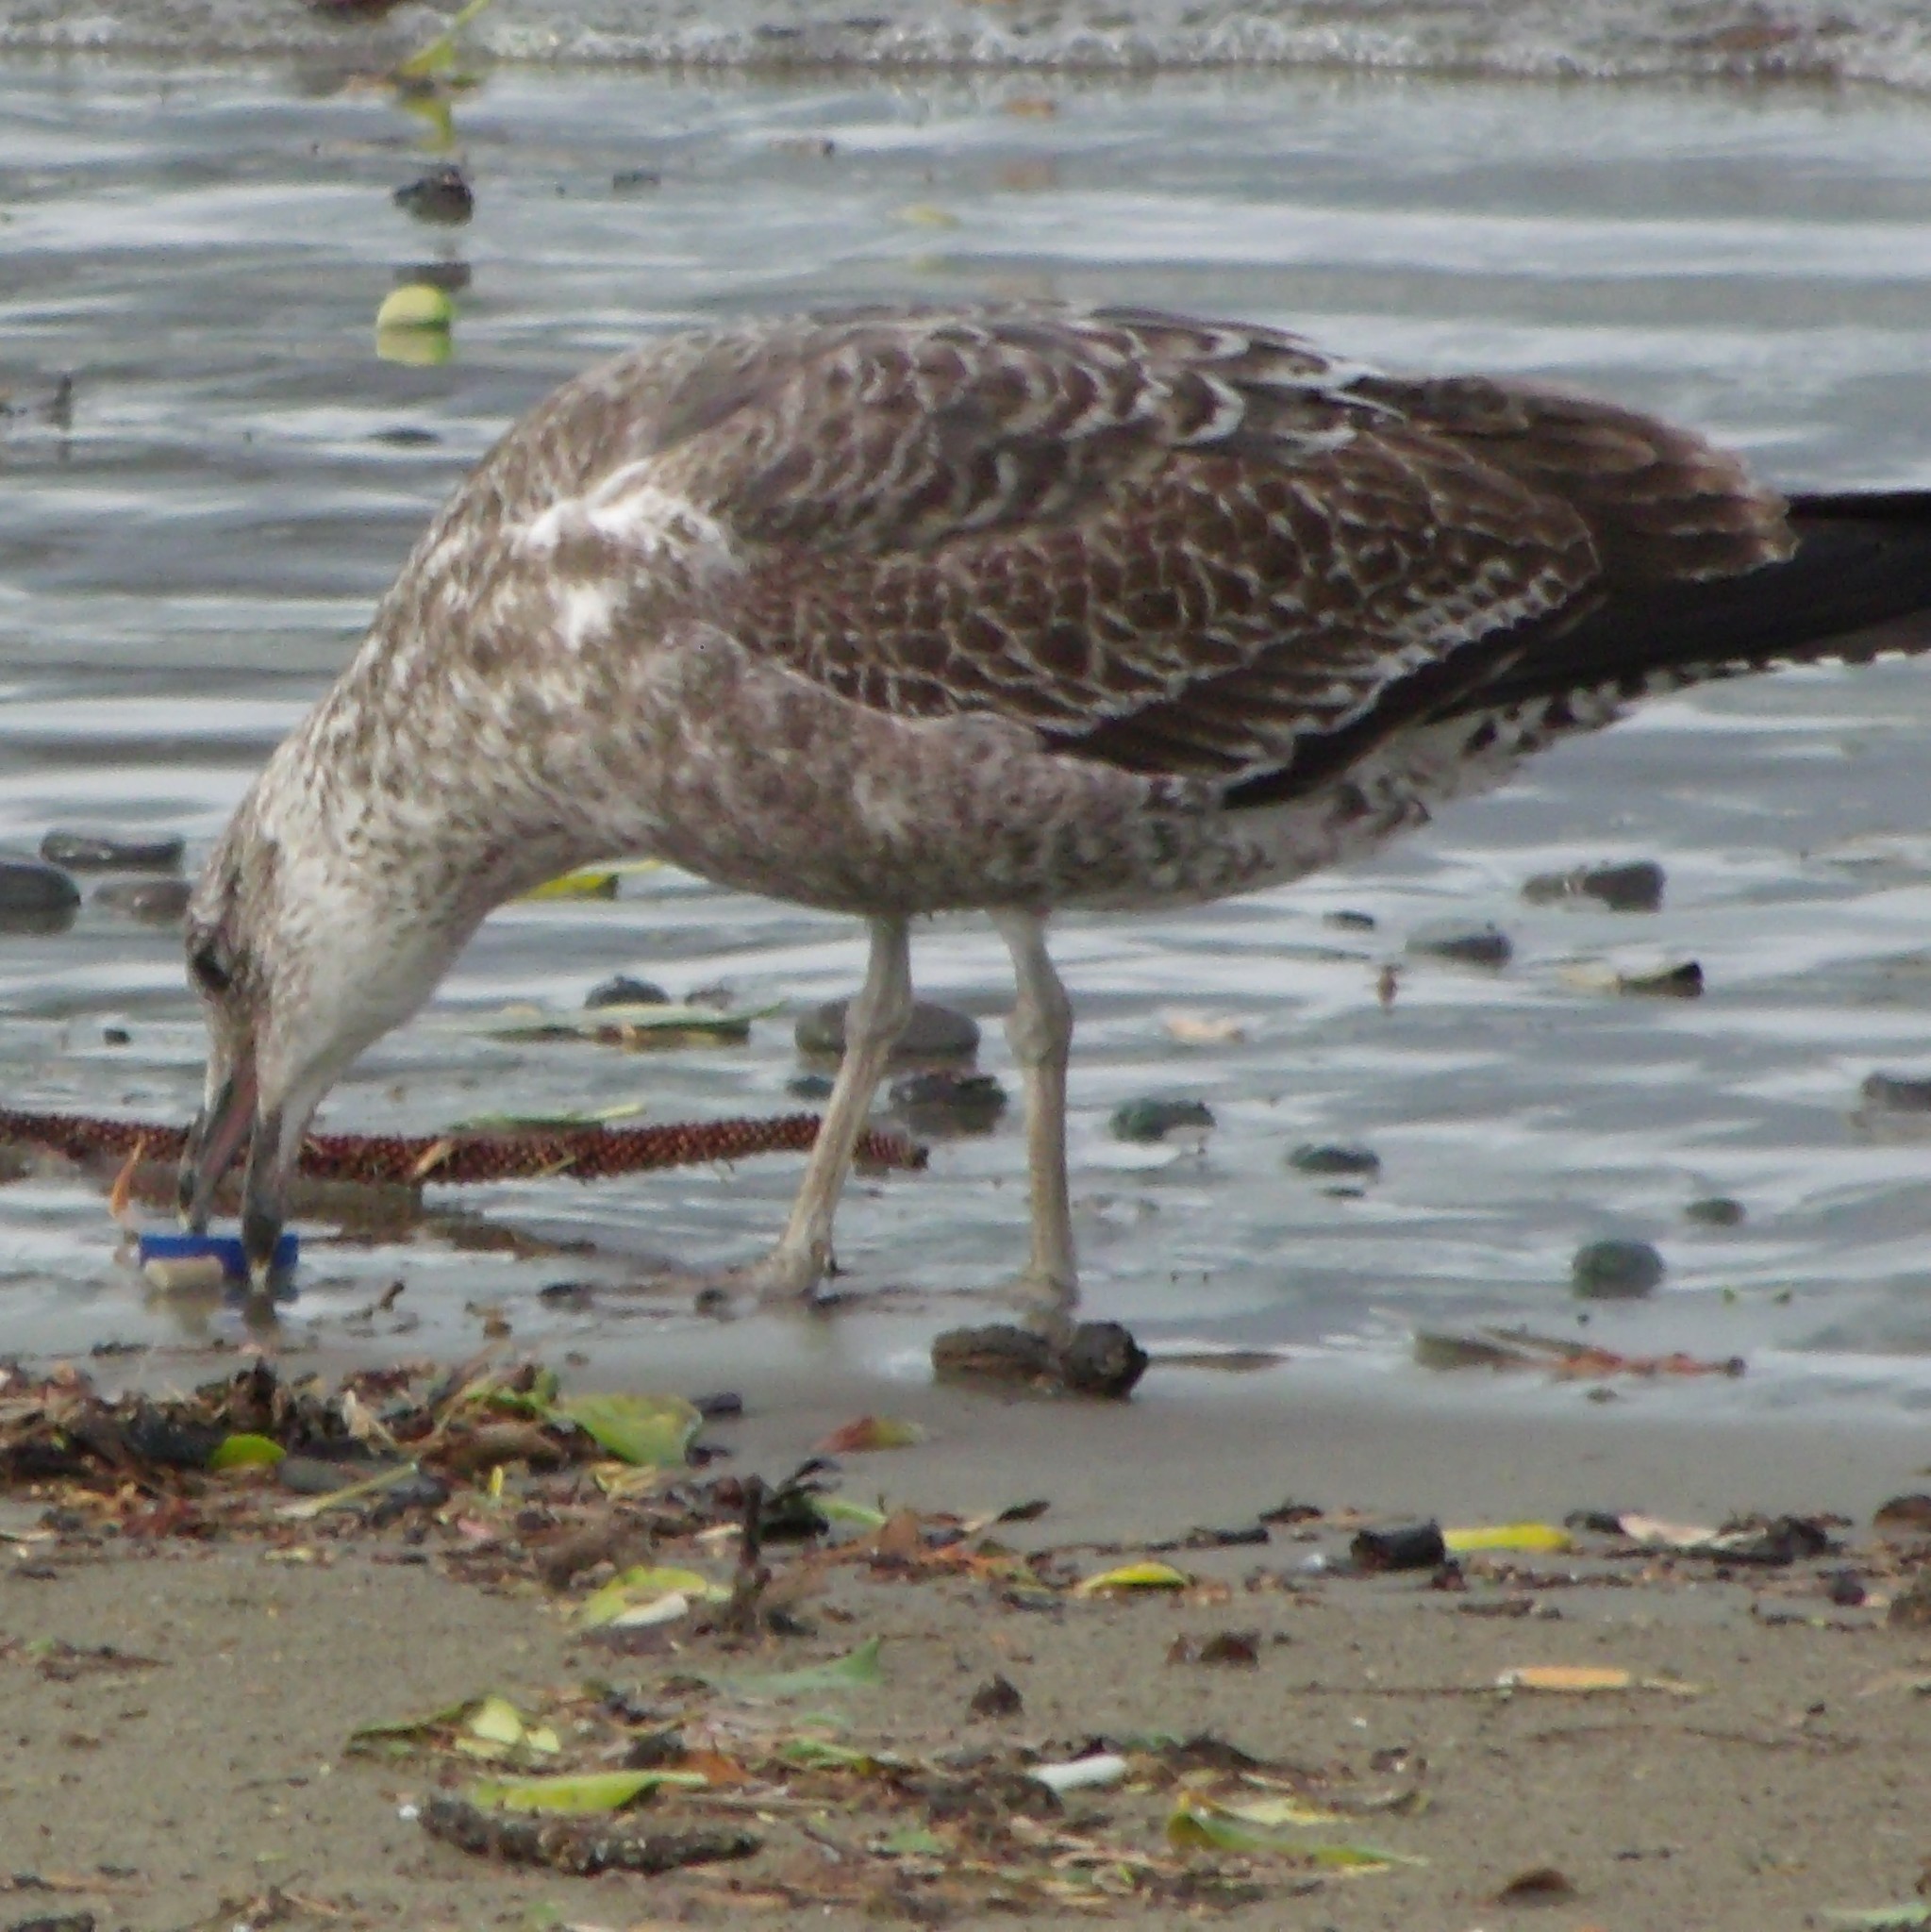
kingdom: Animalia
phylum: Chordata
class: Aves
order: Charadriiformes
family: Laridae
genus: Larus
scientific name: Larus dominicanus
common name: Kelp gull
